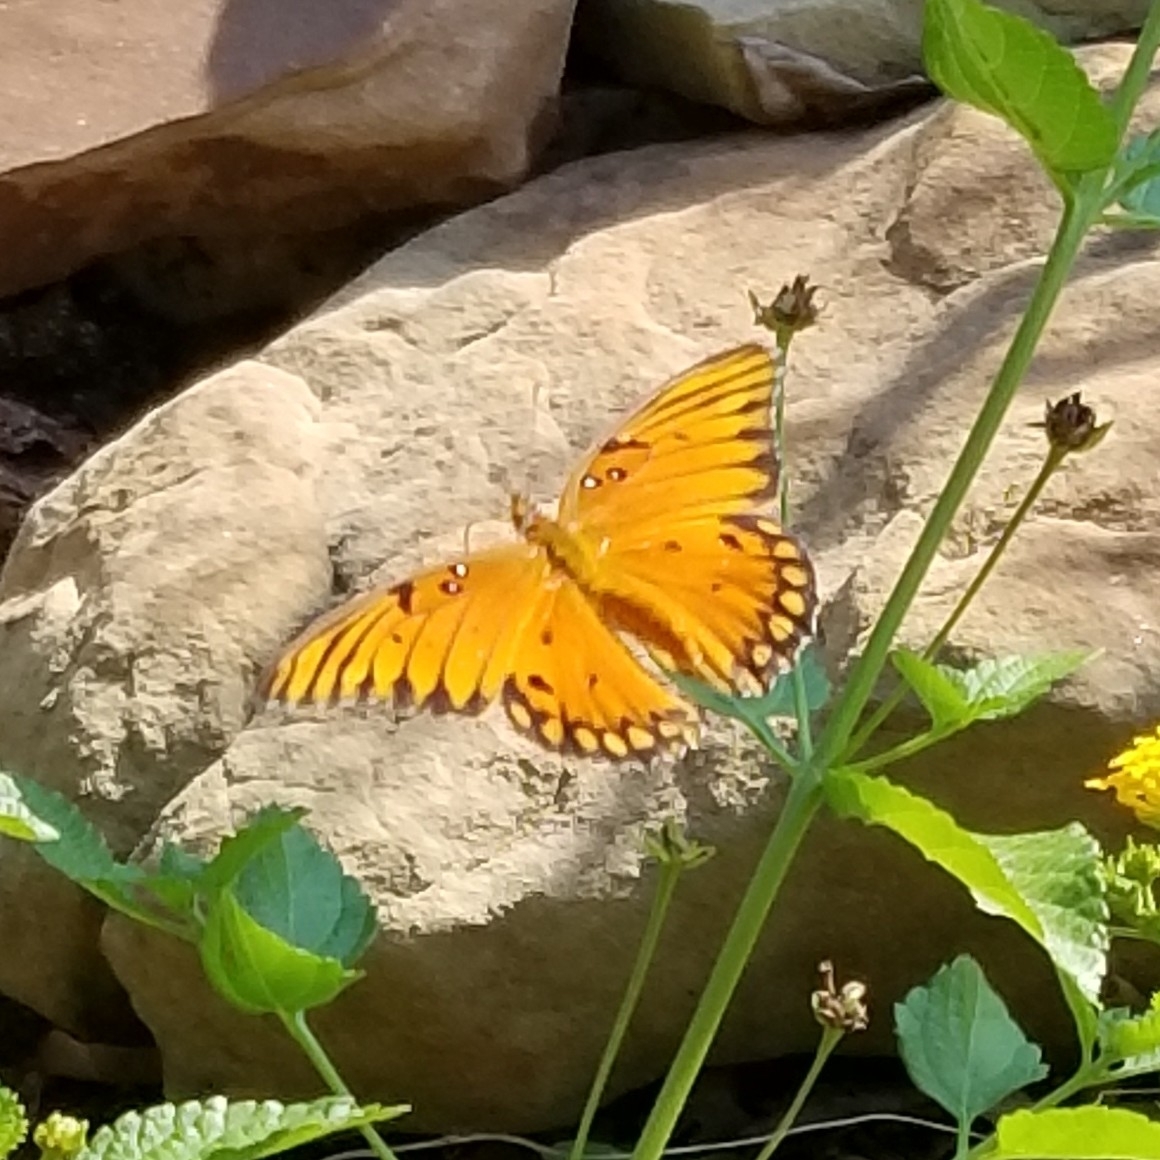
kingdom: Animalia
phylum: Arthropoda
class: Insecta
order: Lepidoptera
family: Nymphalidae
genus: Dione
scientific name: Dione vanillae
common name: Gulf fritillary
